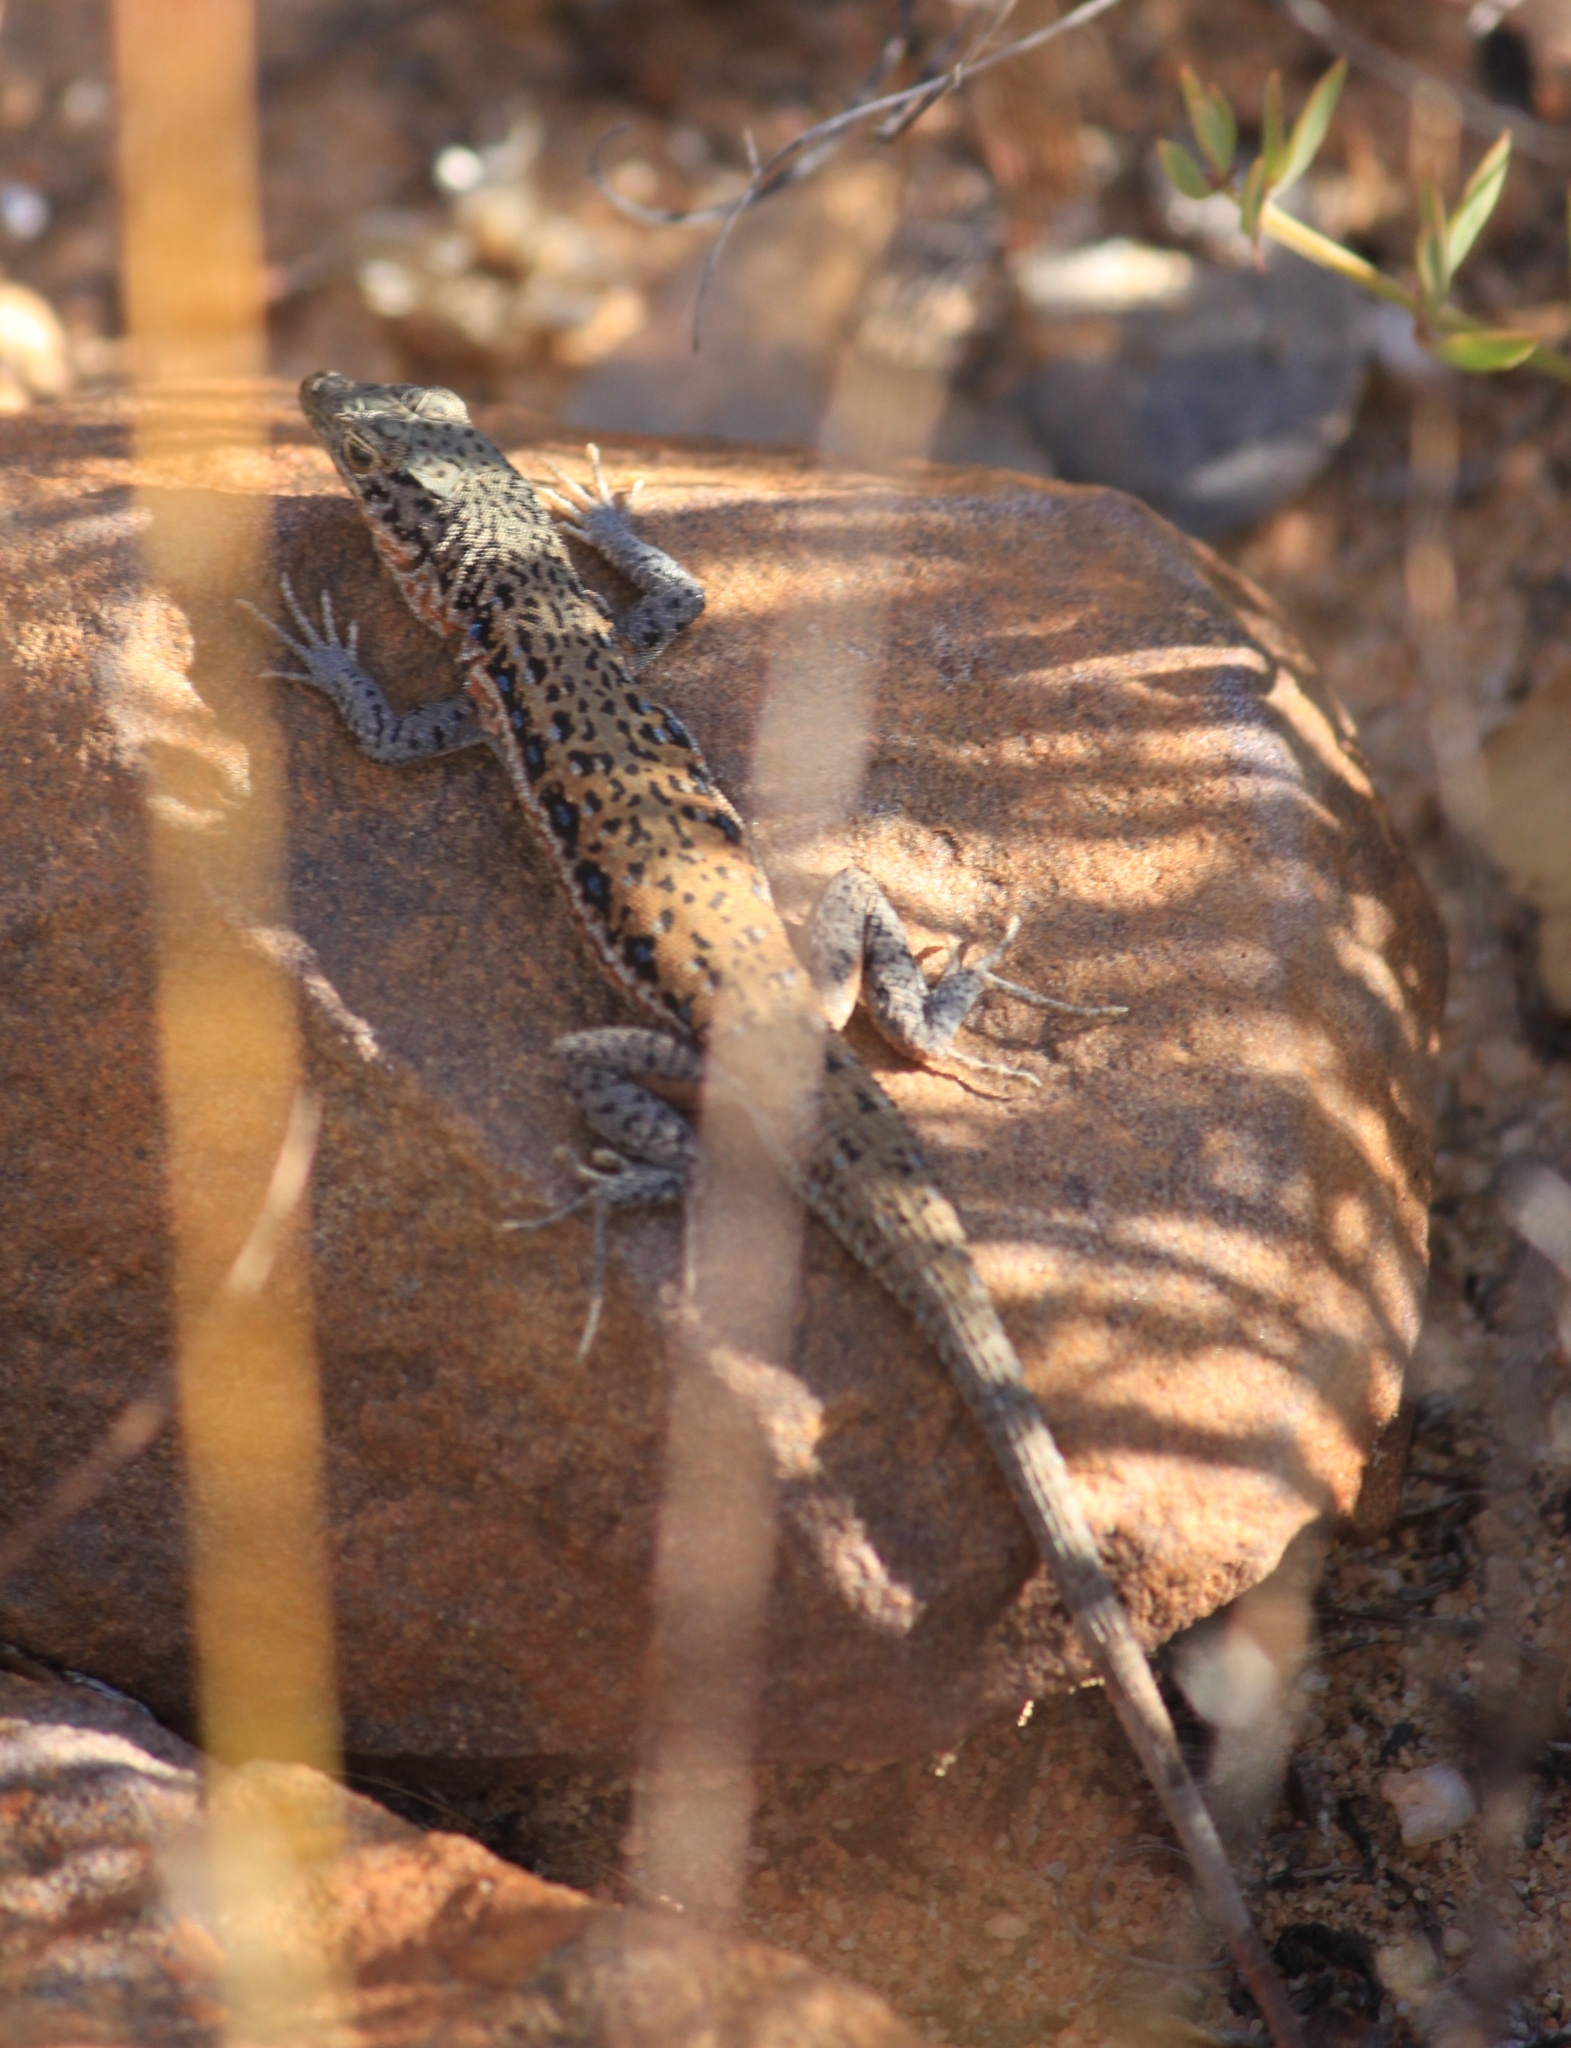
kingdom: Animalia
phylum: Chordata
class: Squamata
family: Lacertidae
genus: Pedioplanis
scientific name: Pedioplanis lineoocellata
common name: Spotted sand lizard
